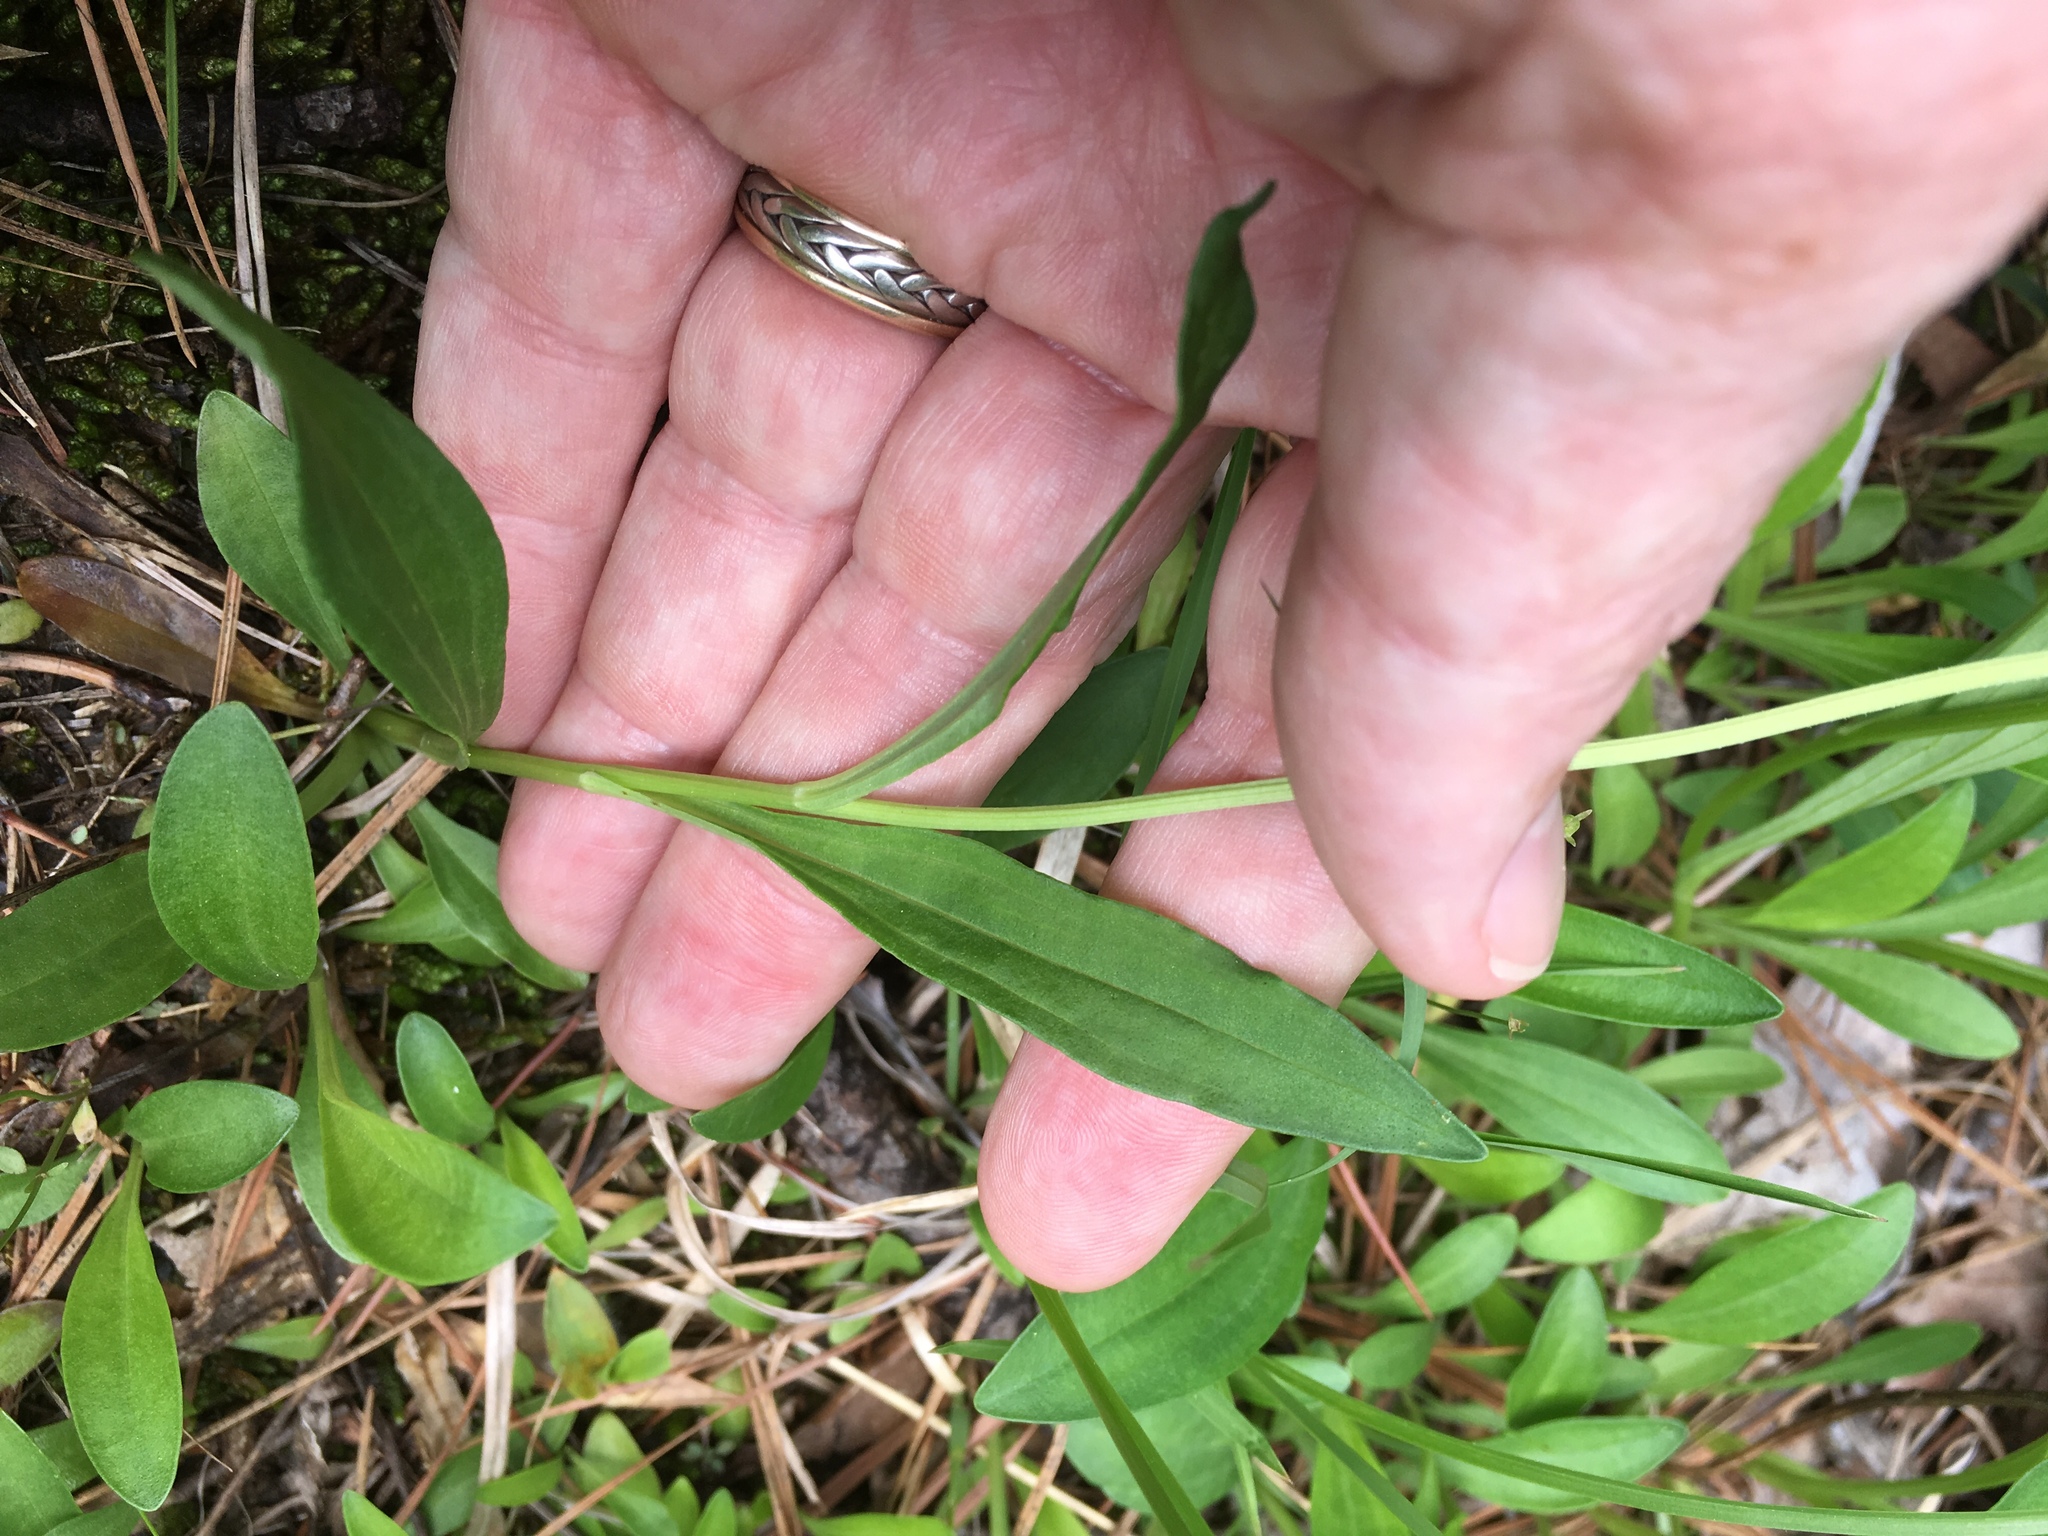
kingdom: Plantae
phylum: Tracheophyta
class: Magnoliopsida
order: Asterales
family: Asteraceae
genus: Marshallia
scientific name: Marshallia obovata
